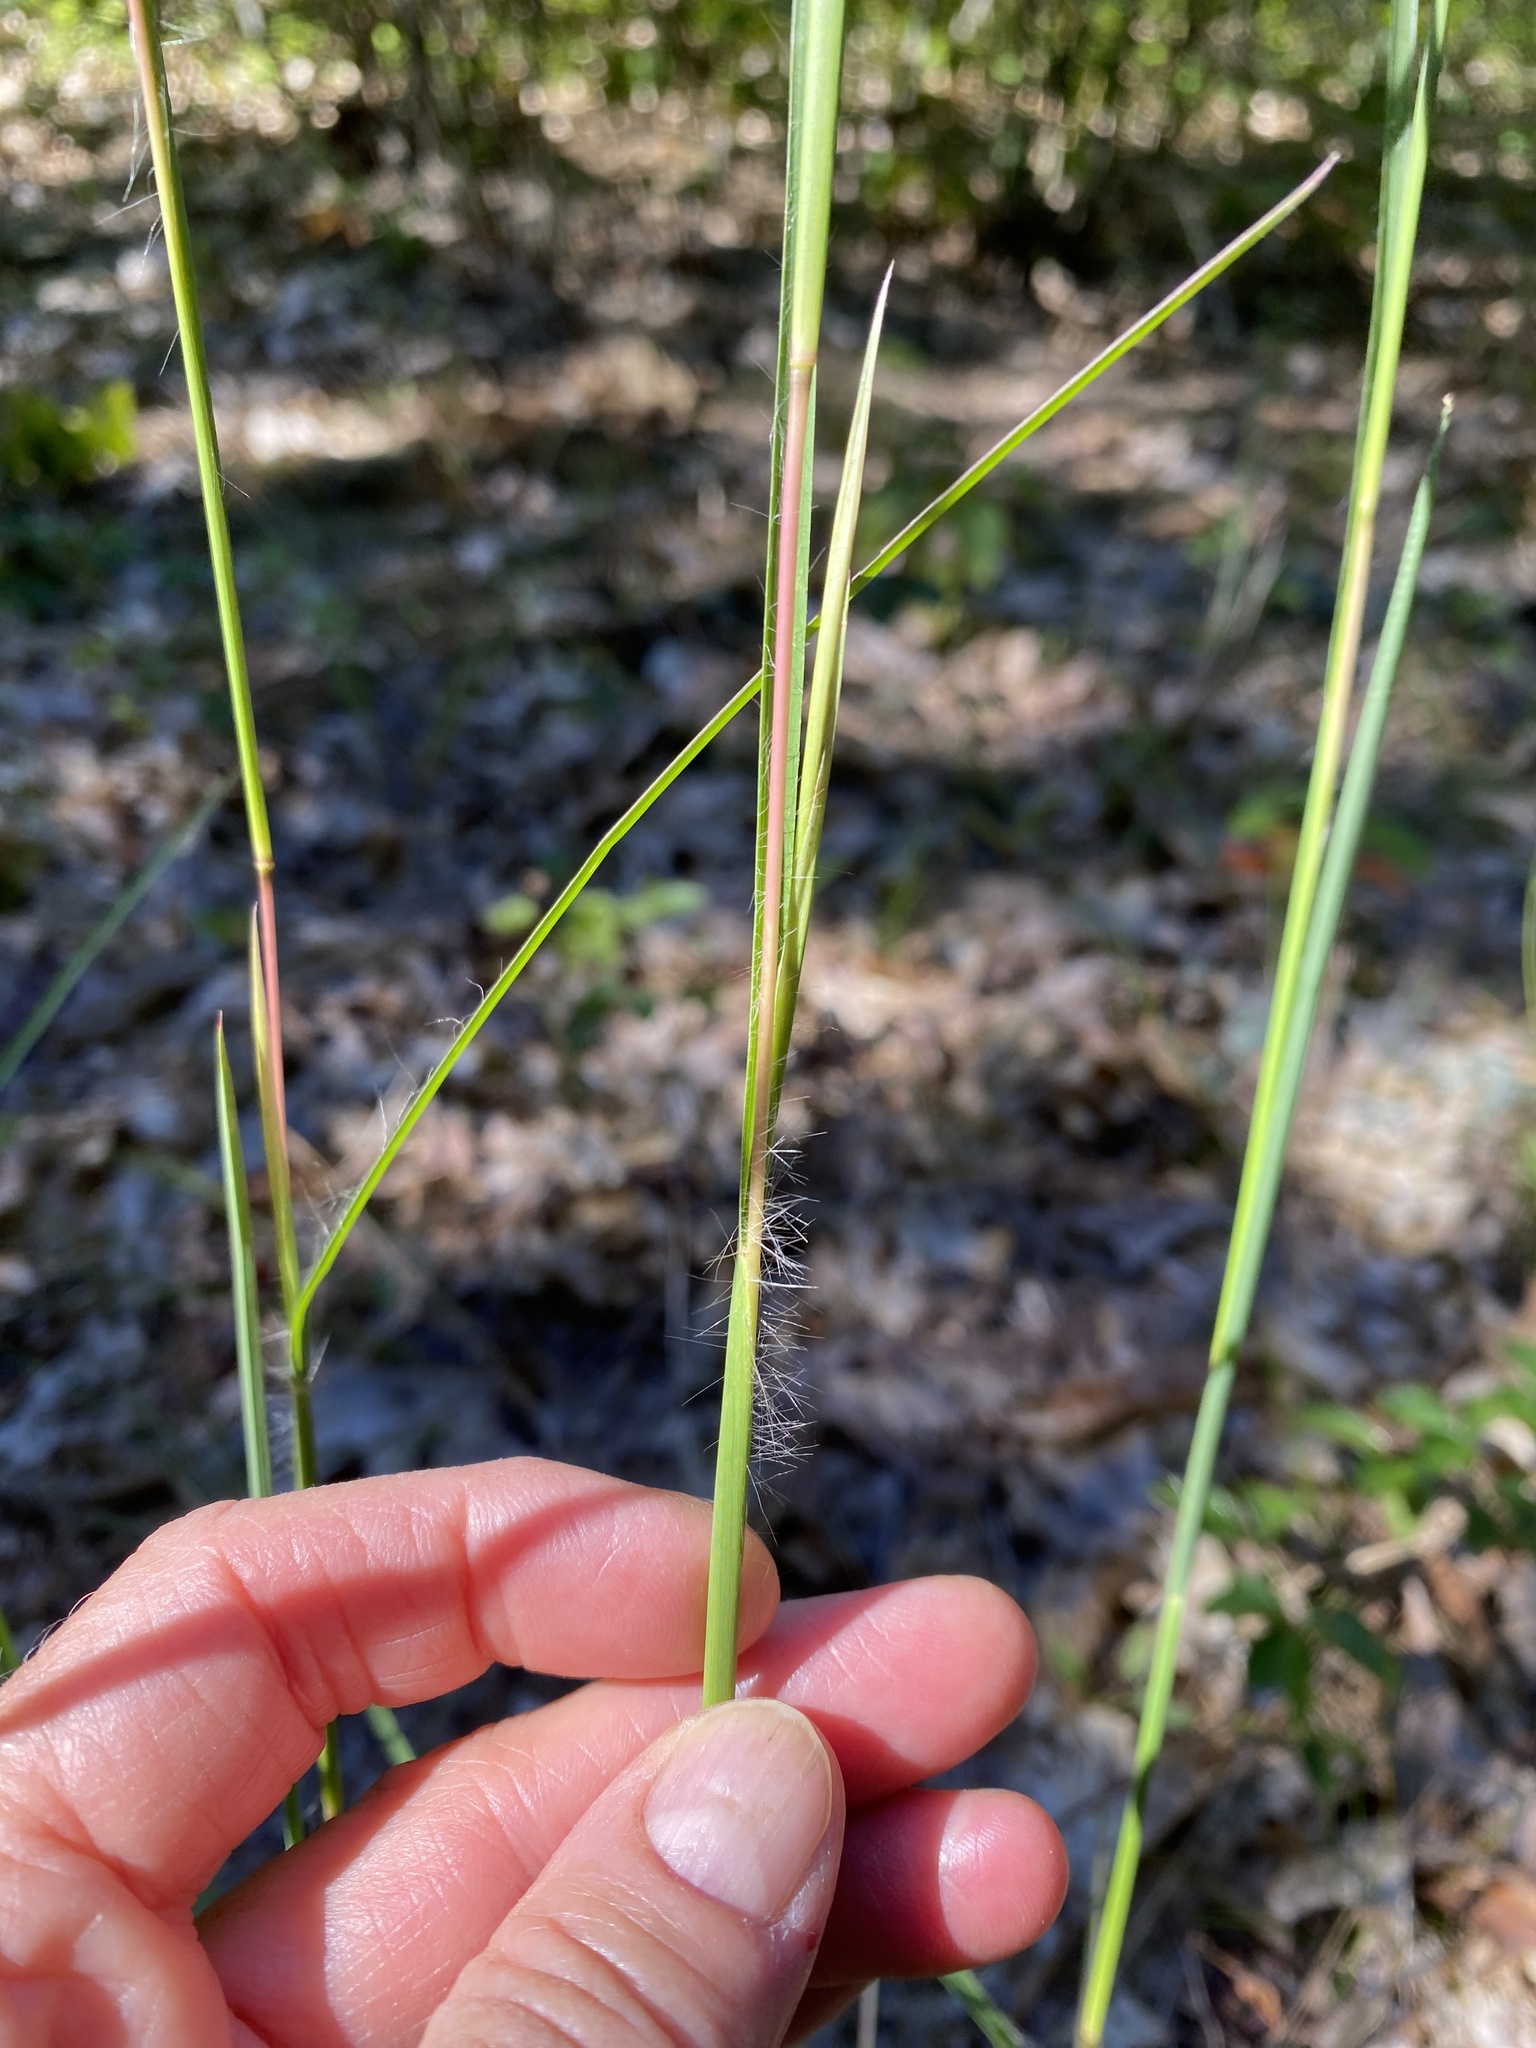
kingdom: Plantae
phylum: Tracheophyta
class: Liliopsida
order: Poales
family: Poaceae
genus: Andropogon
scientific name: Andropogon virginicus
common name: Broomsedge bluestem
